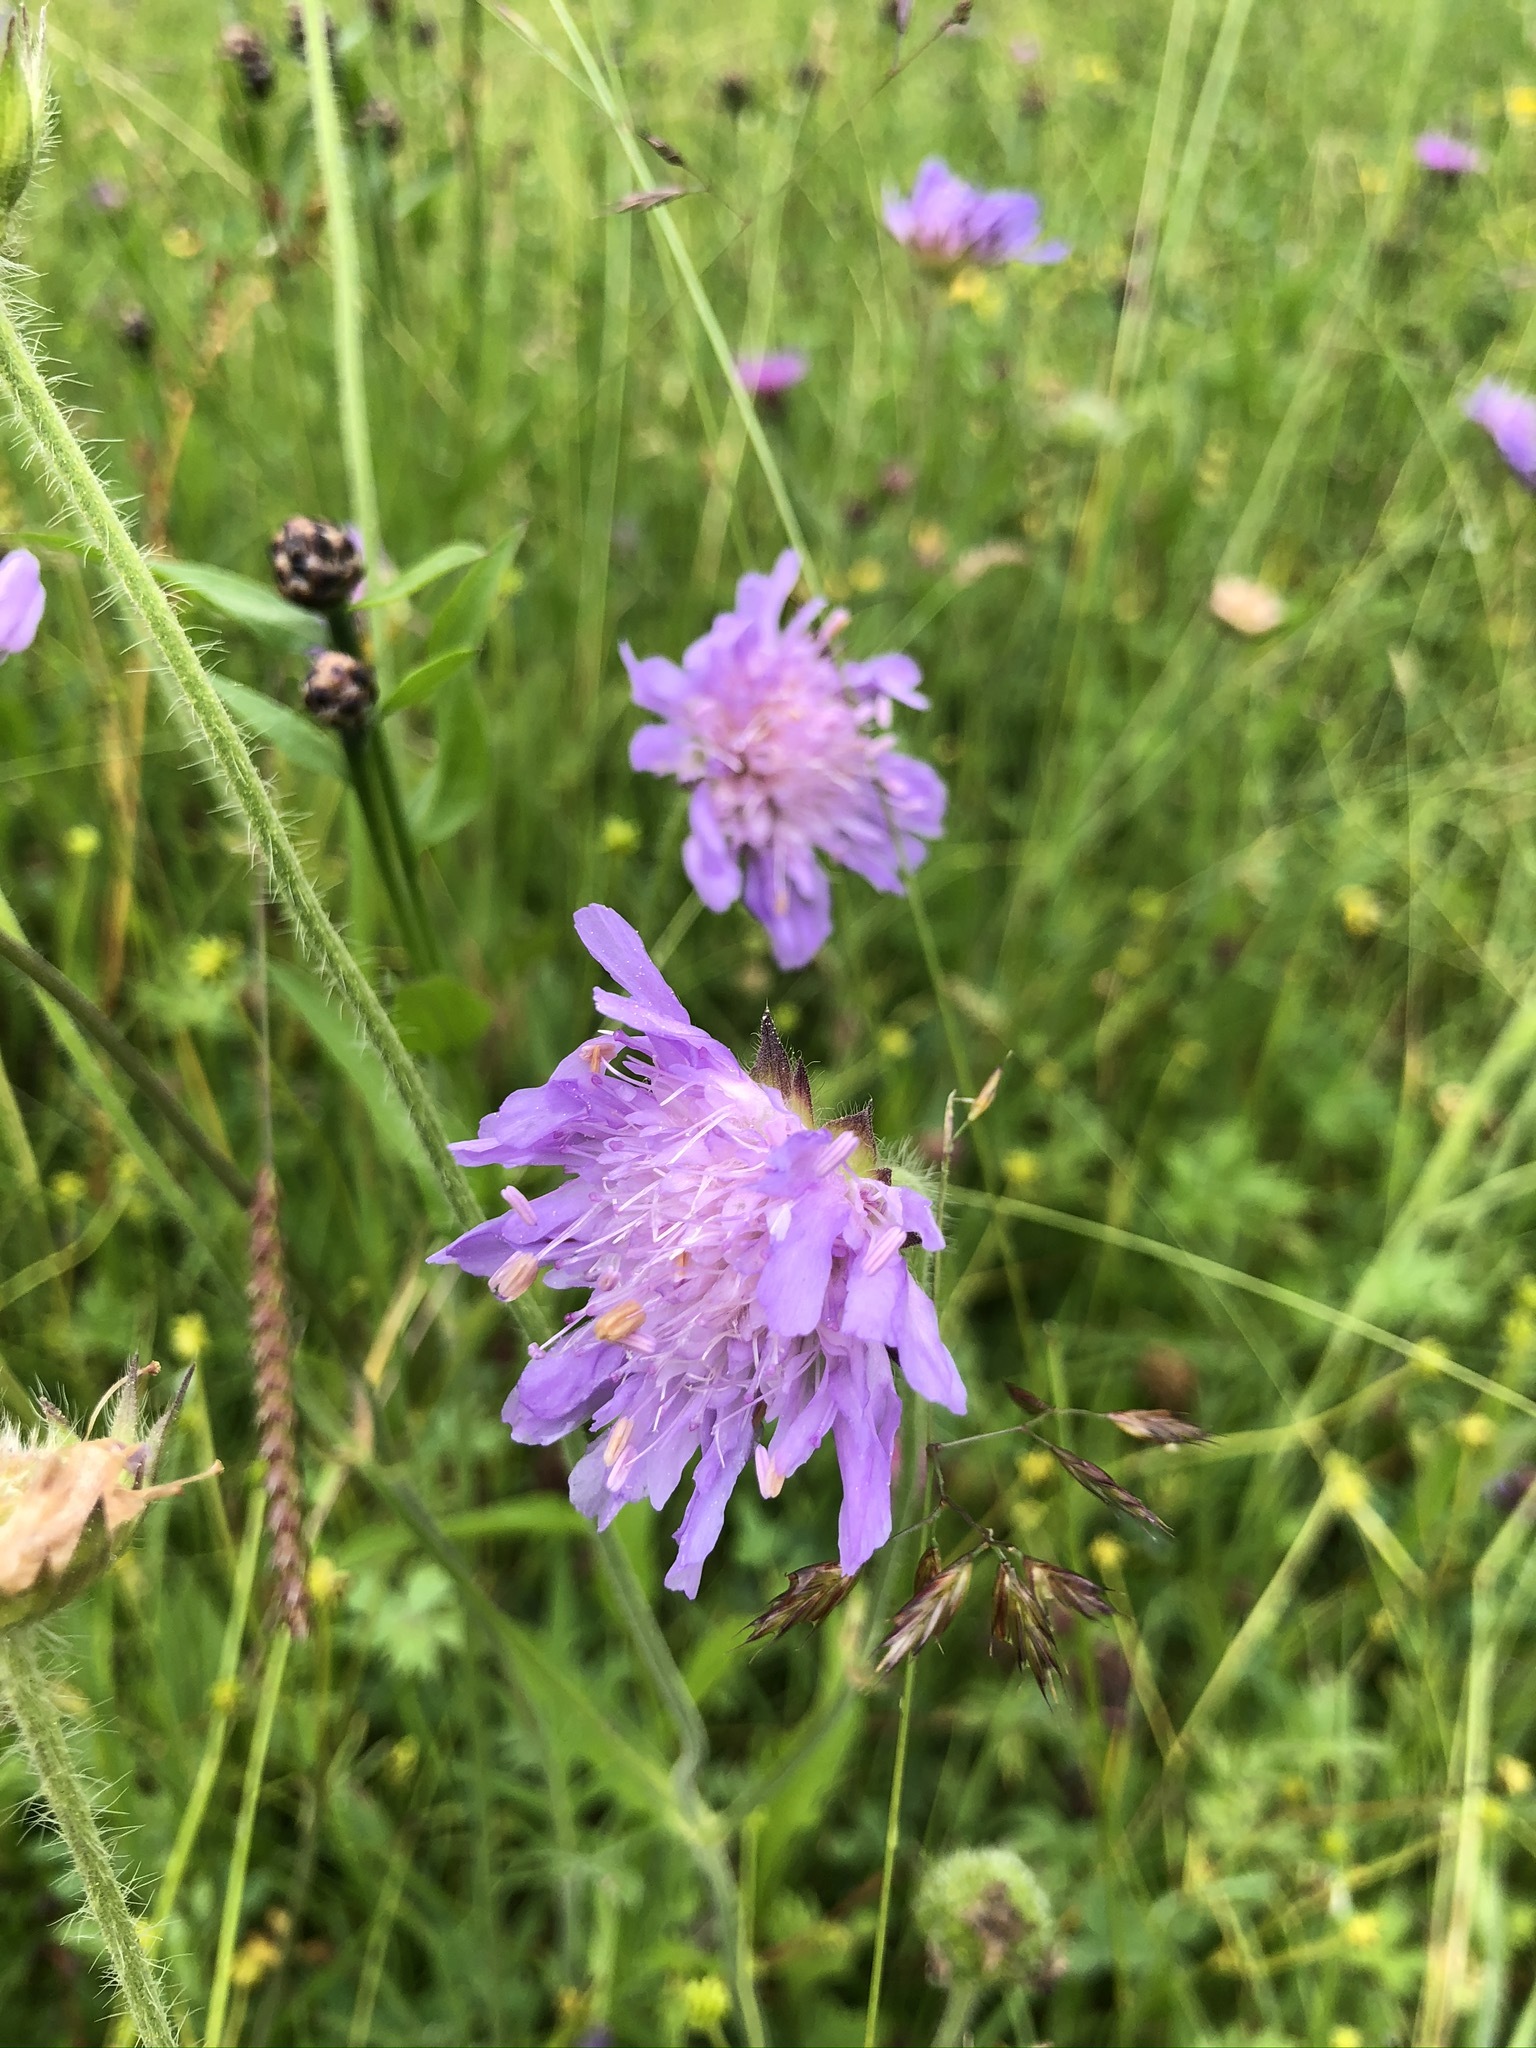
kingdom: Plantae
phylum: Tracheophyta
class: Magnoliopsida
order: Dipsacales
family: Caprifoliaceae
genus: Knautia
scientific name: Knautia arvensis
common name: Field scabiosa
